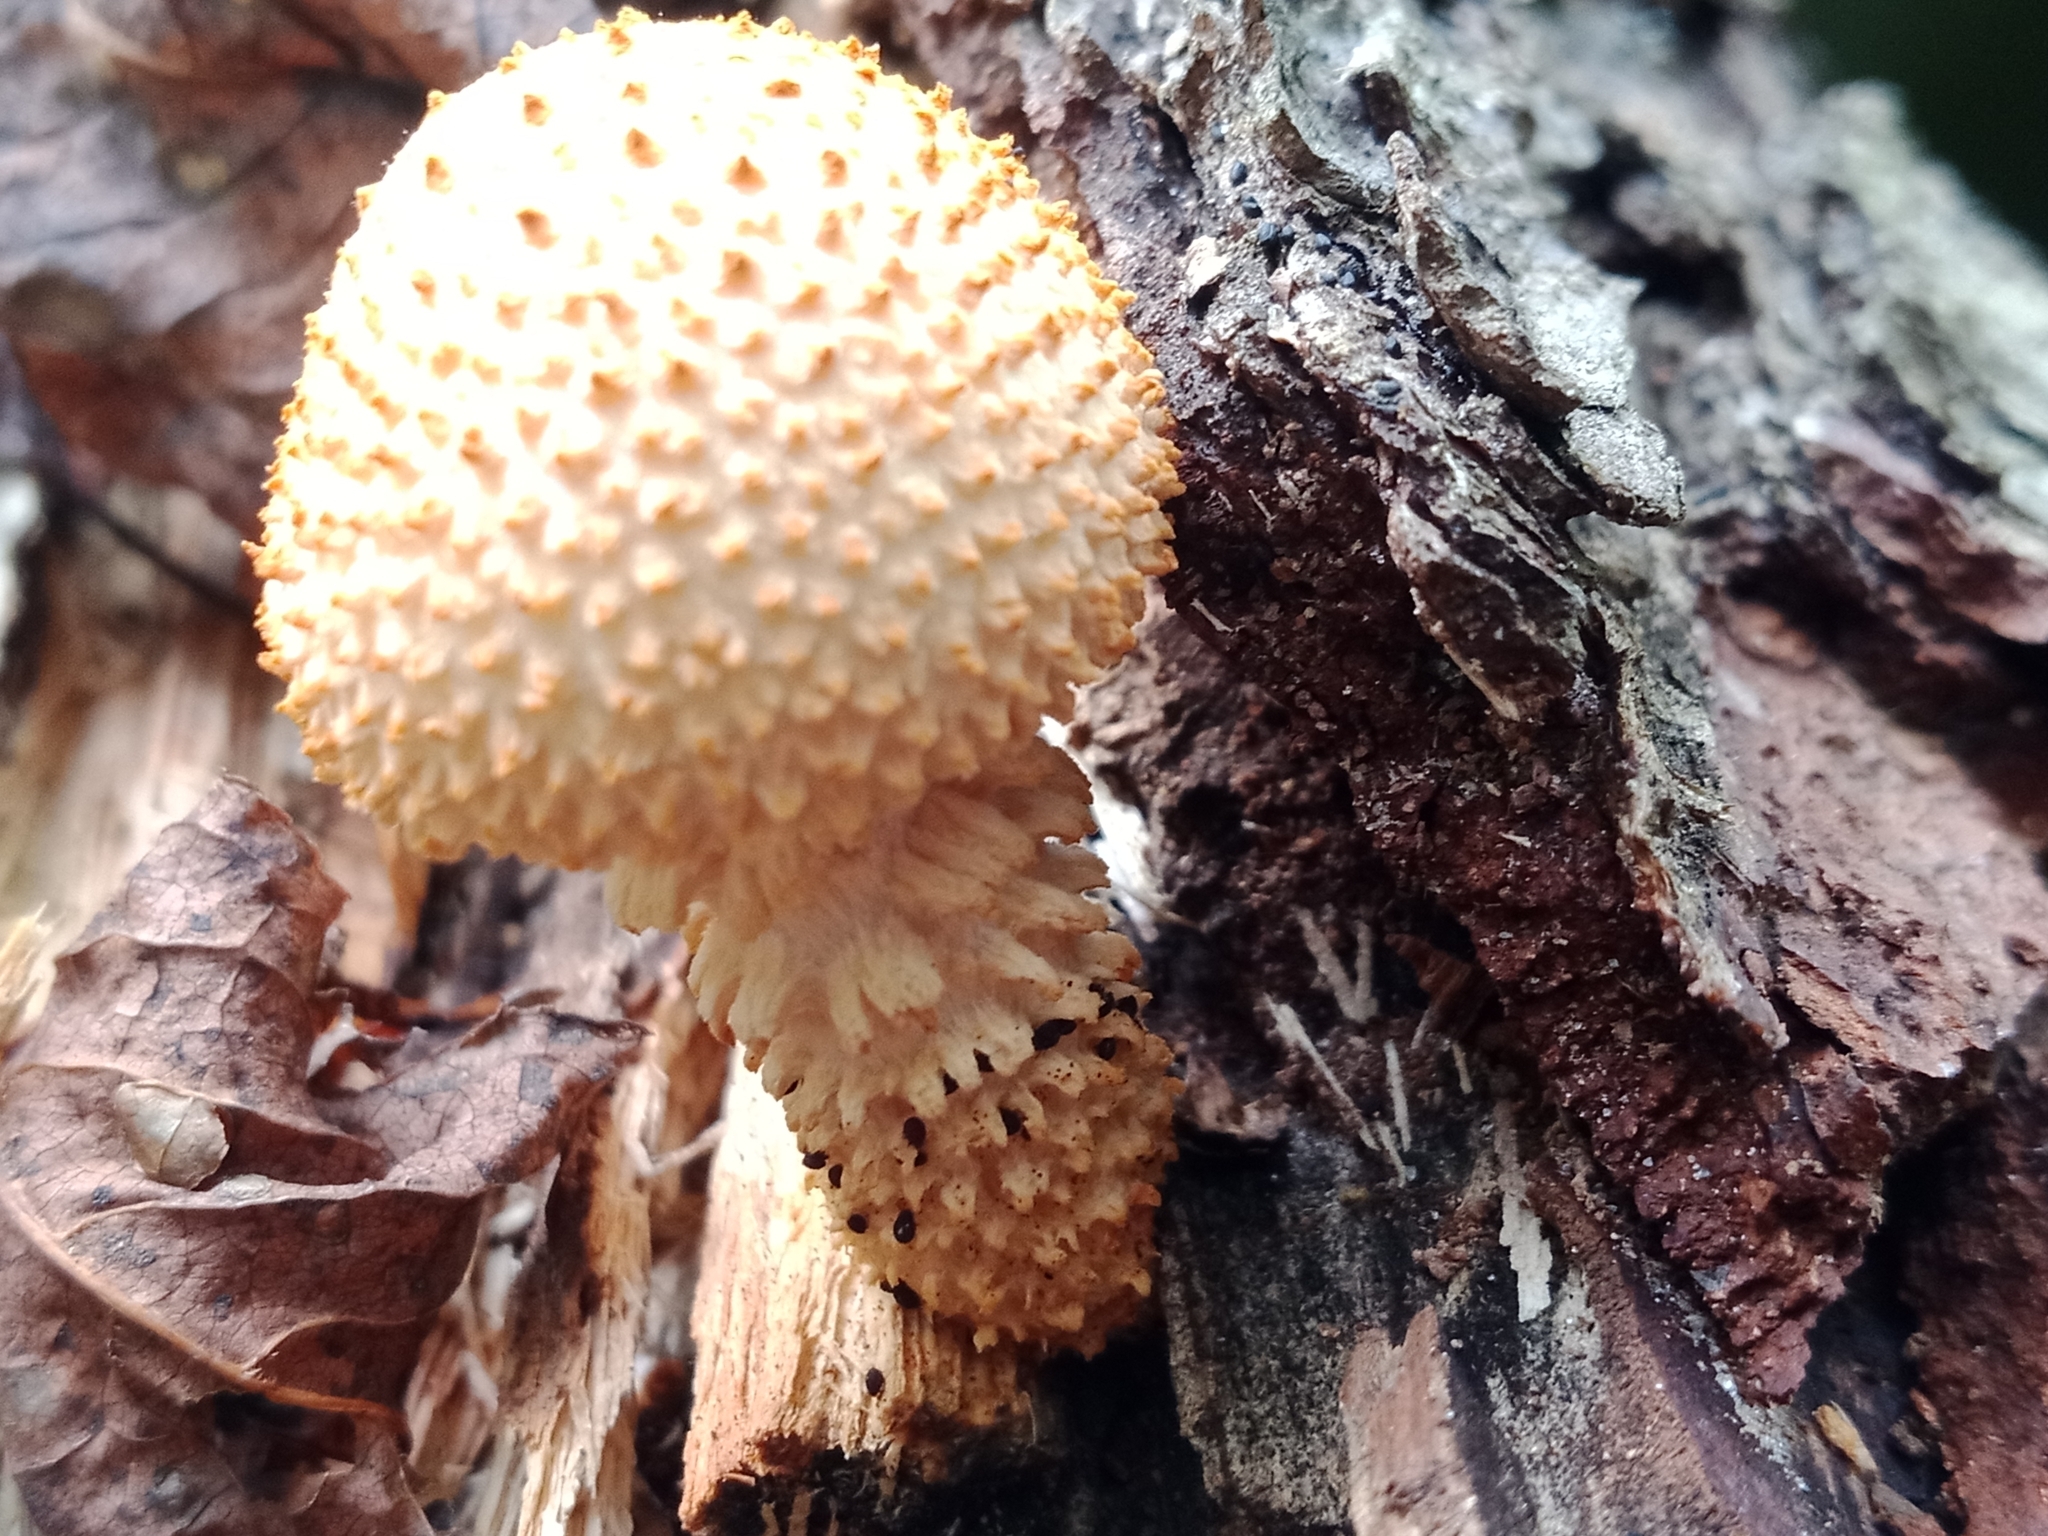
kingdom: Fungi
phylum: Basidiomycota
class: Agaricomycetes
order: Agaricales
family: Strophariaceae
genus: Pholiota
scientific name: Pholiota squarrosoides
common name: Sharp-scaly pholiota
